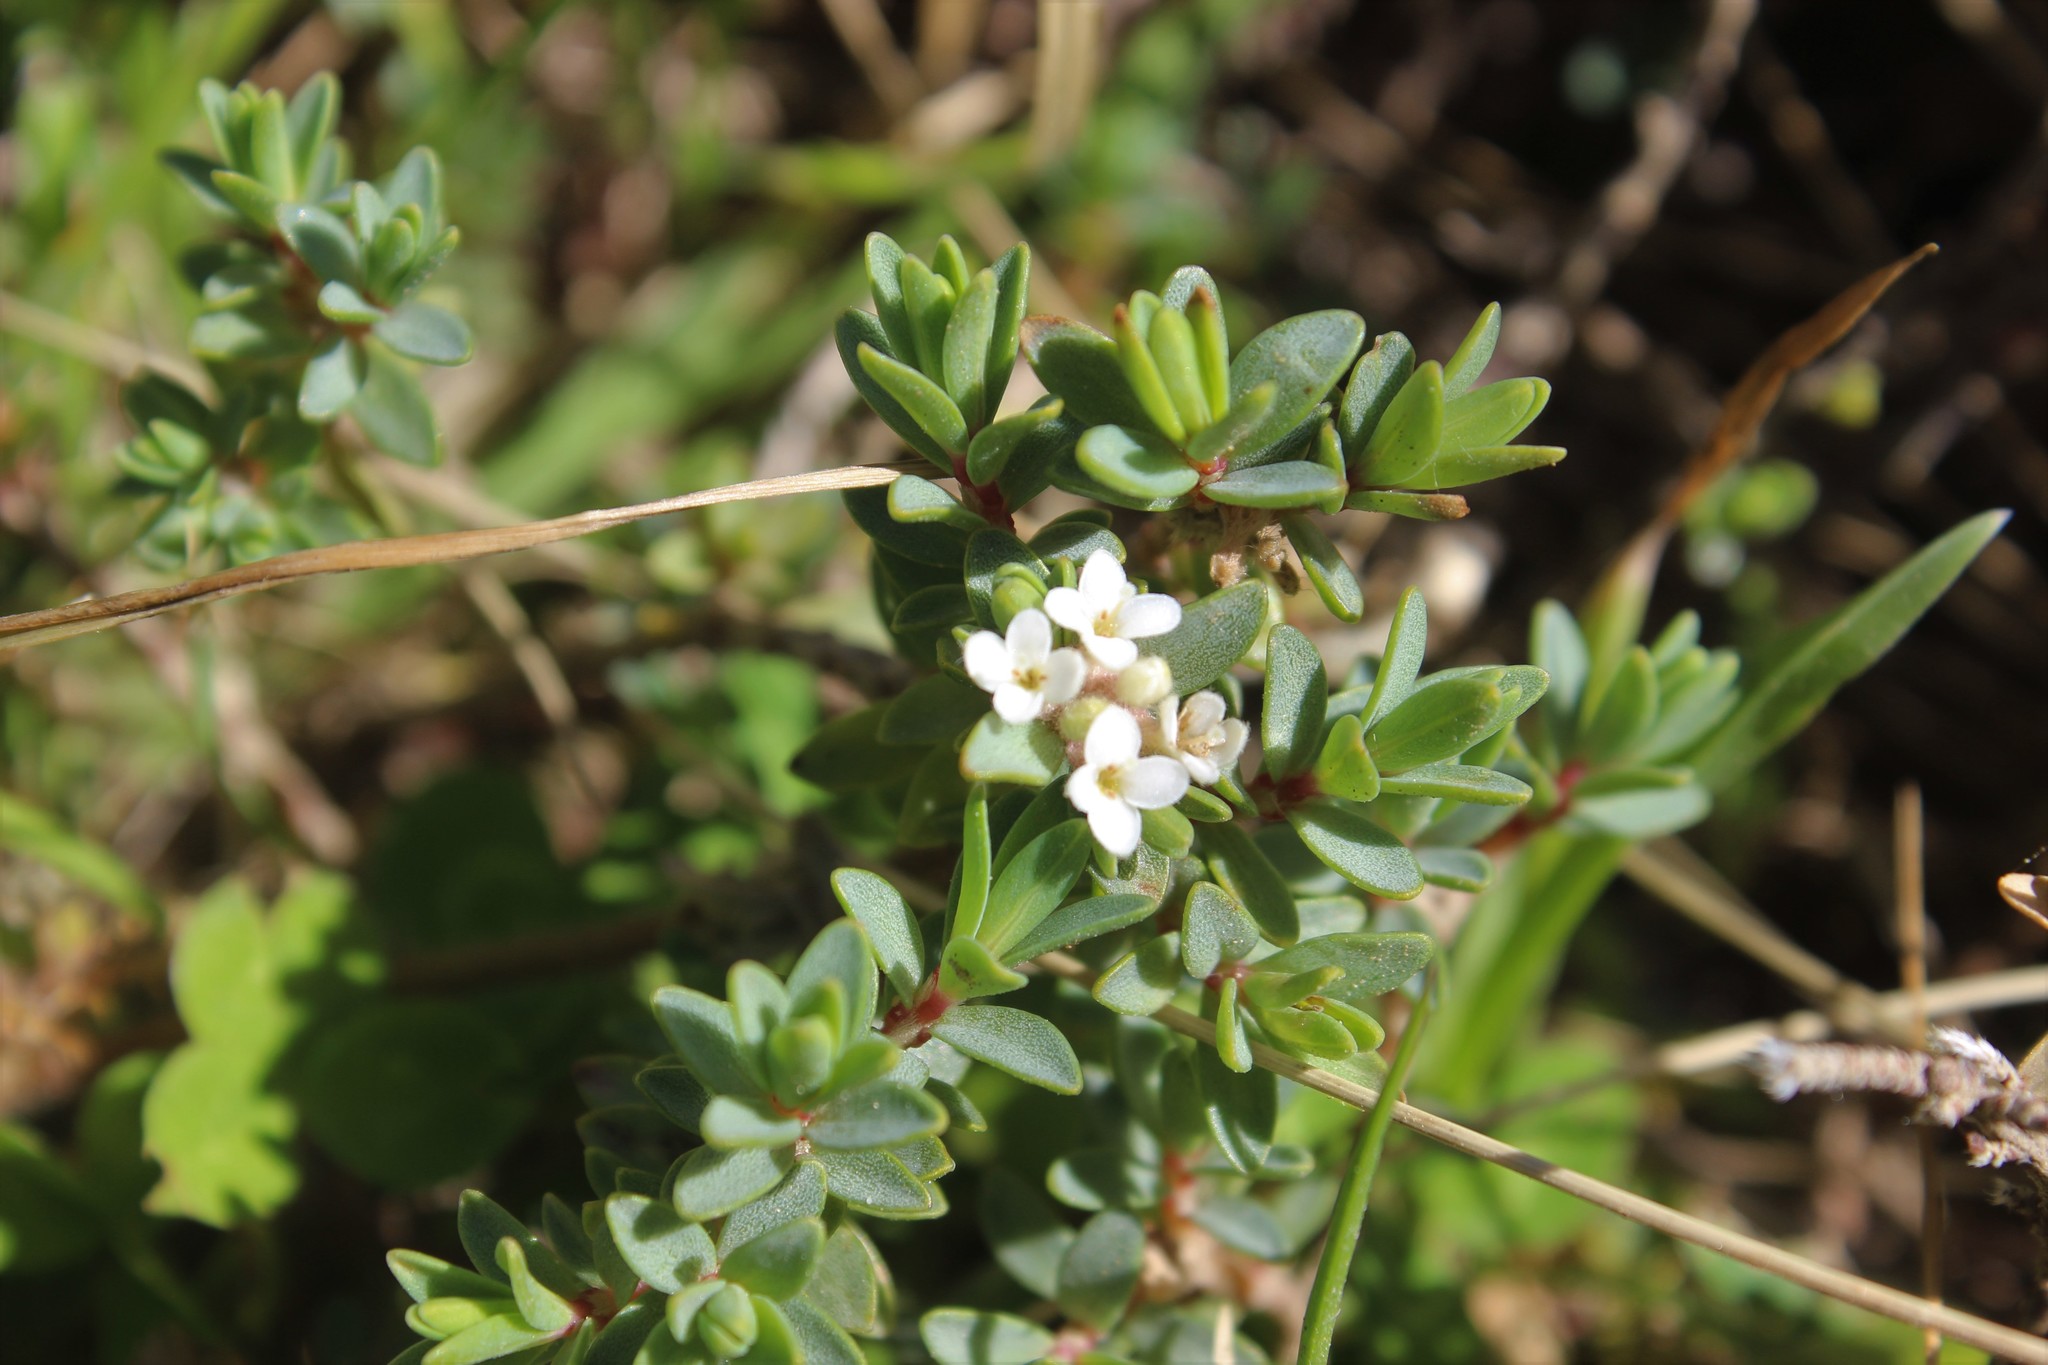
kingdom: Plantae
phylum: Tracheophyta
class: Magnoliopsida
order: Malvales
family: Thymelaeaceae
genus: Pimelea
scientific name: Pimelea prostrata
